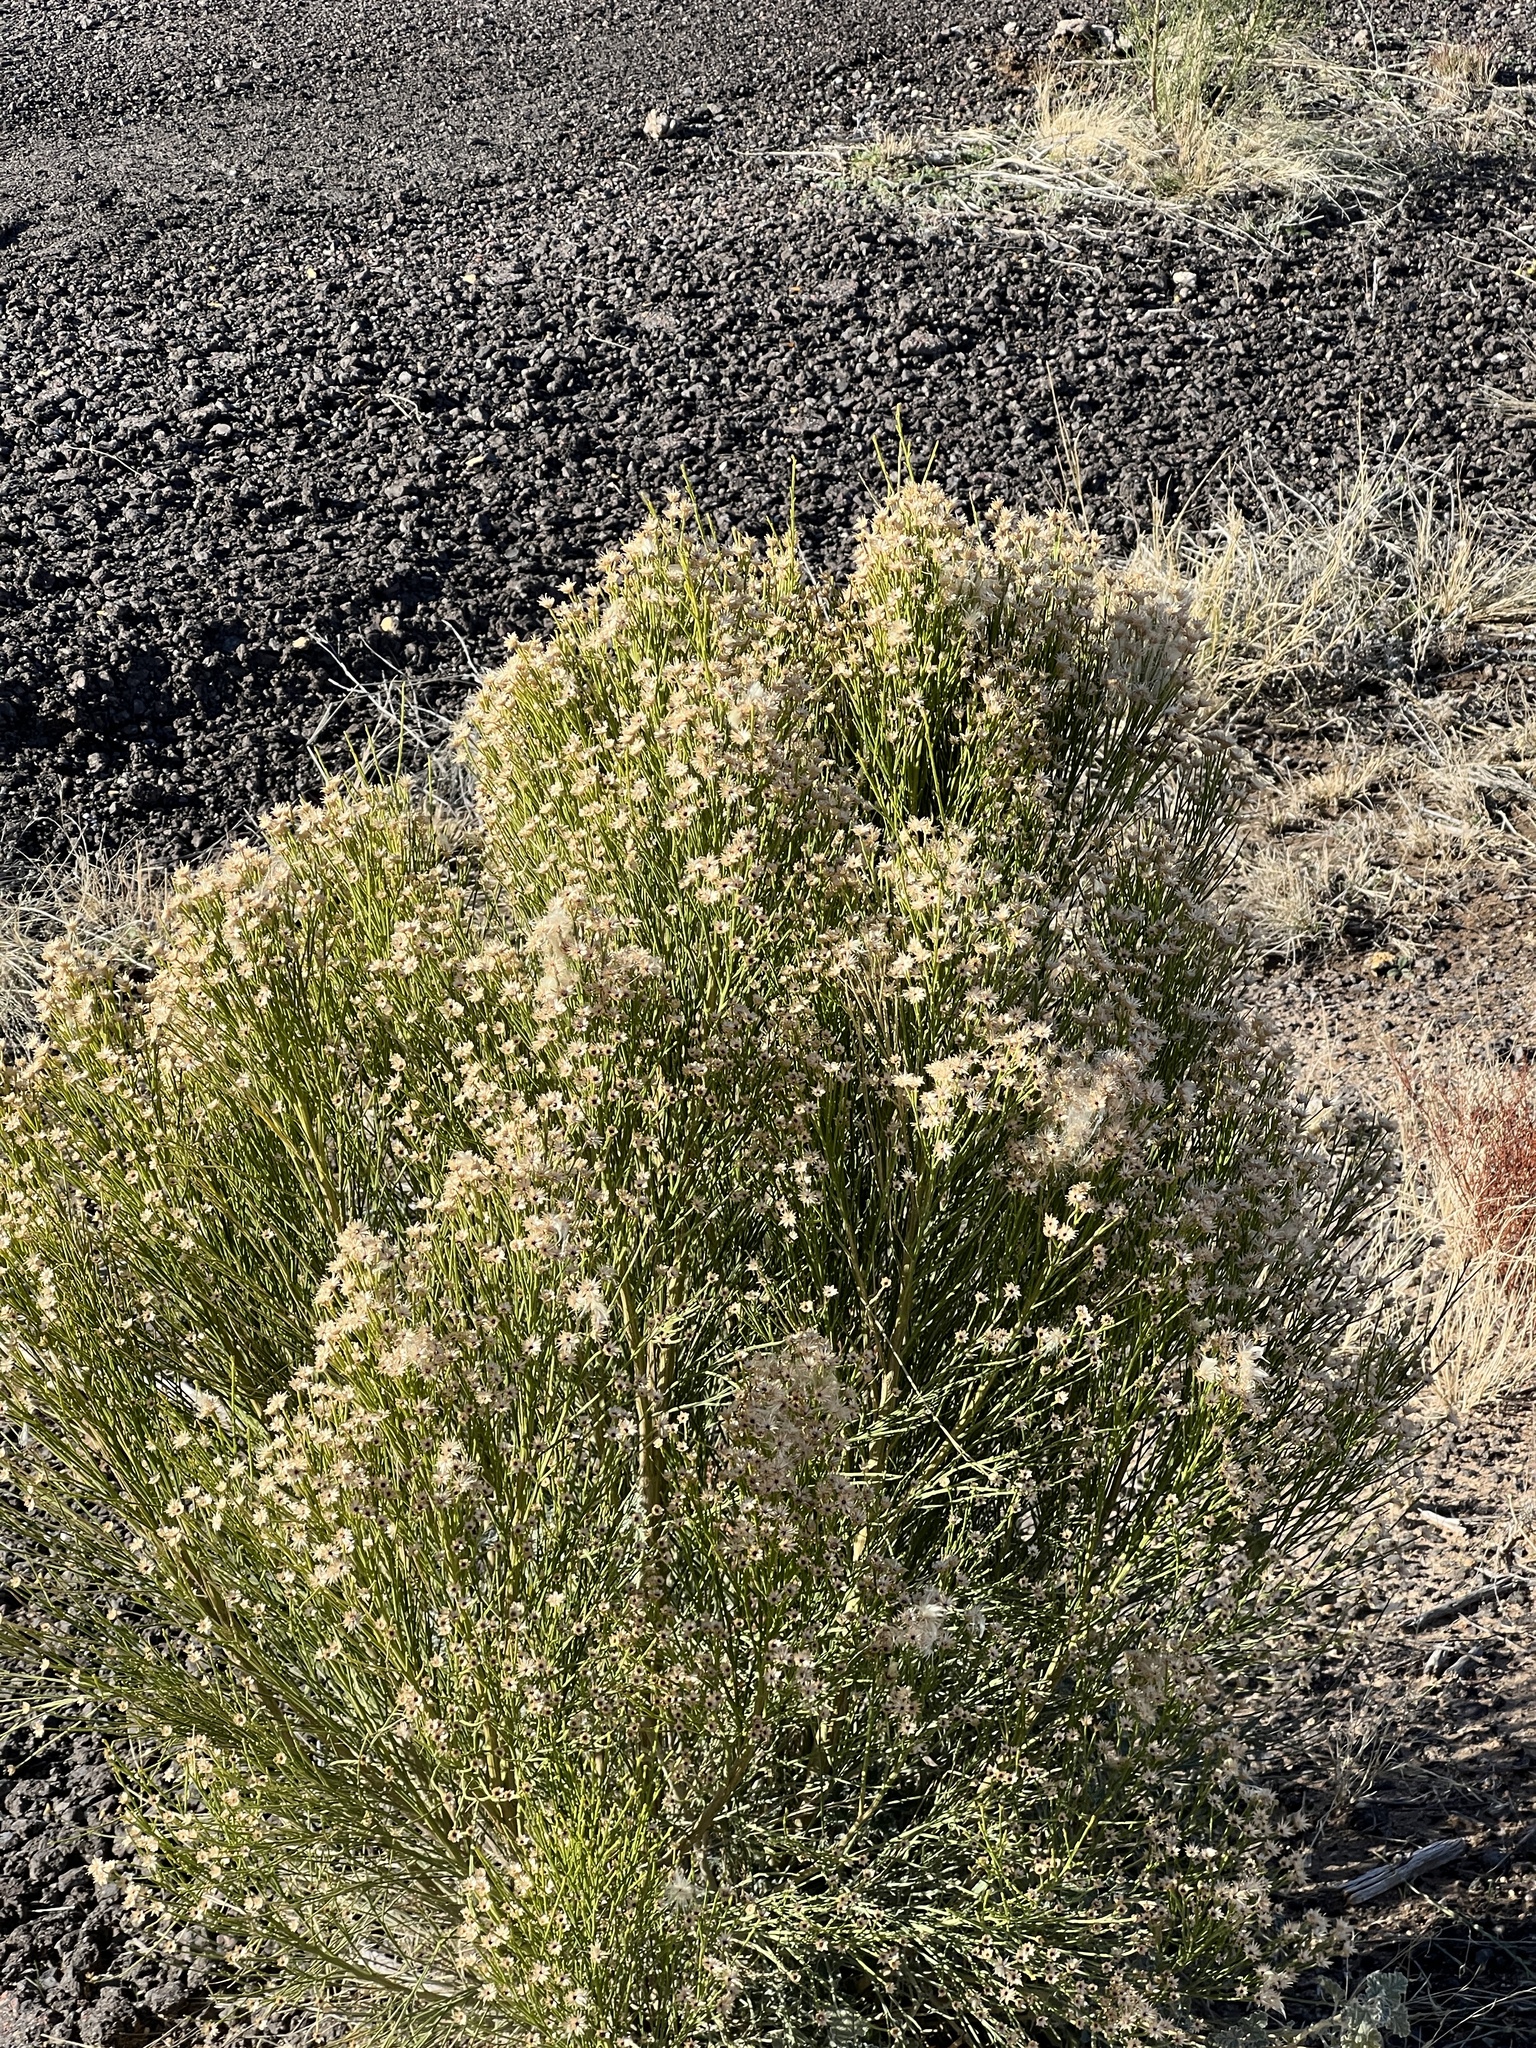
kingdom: Plantae
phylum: Tracheophyta
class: Magnoliopsida
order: Asterales
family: Asteraceae
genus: Baccharis
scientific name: Baccharis sergiloides
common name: Desert baccharis
